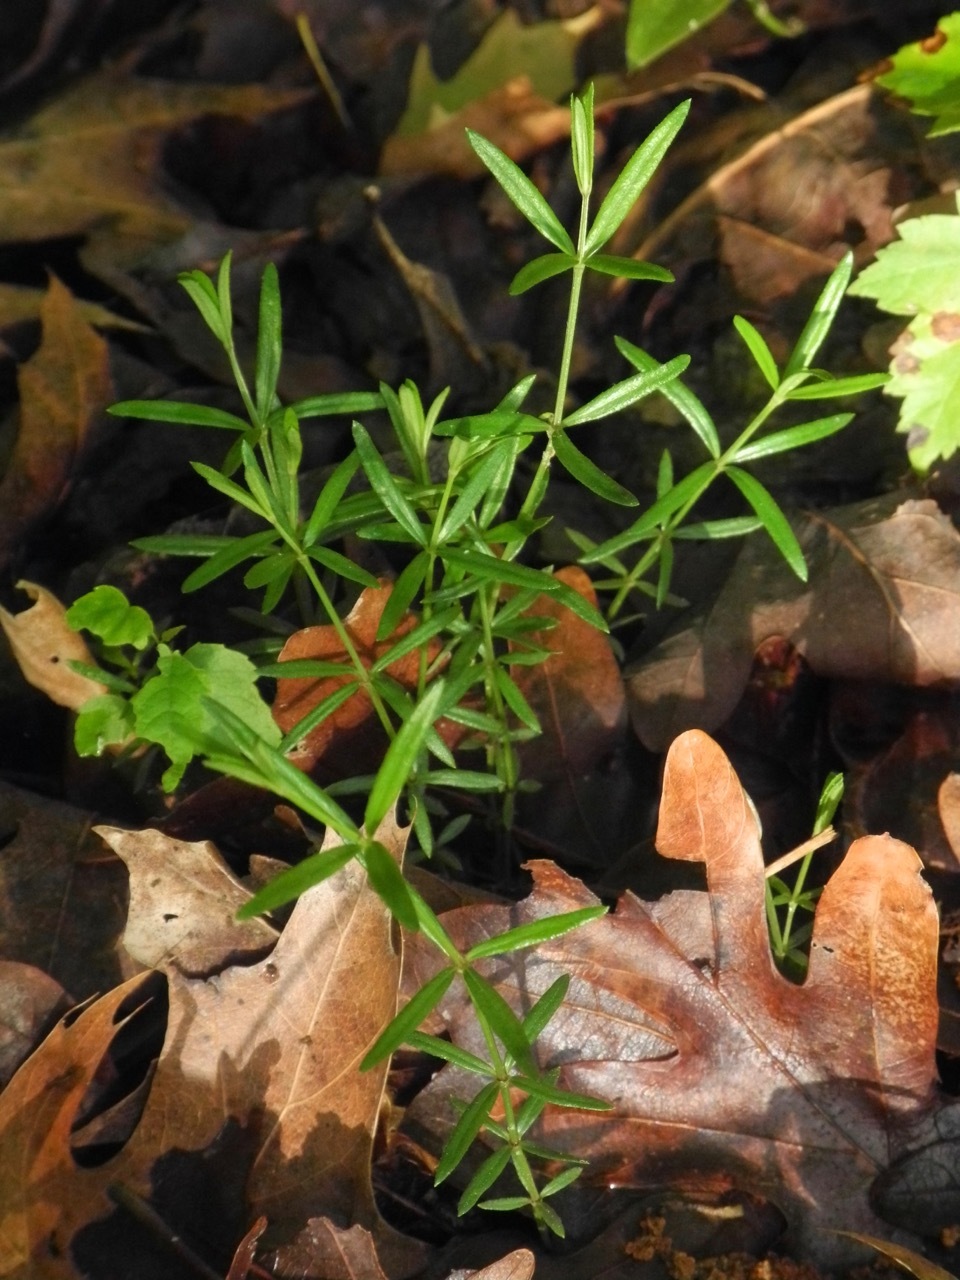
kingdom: Plantae
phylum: Tracheophyta
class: Magnoliopsida
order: Gentianales
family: Rubiaceae
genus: Galium
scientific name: Galium uniflorum
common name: One-flower bedstraw
